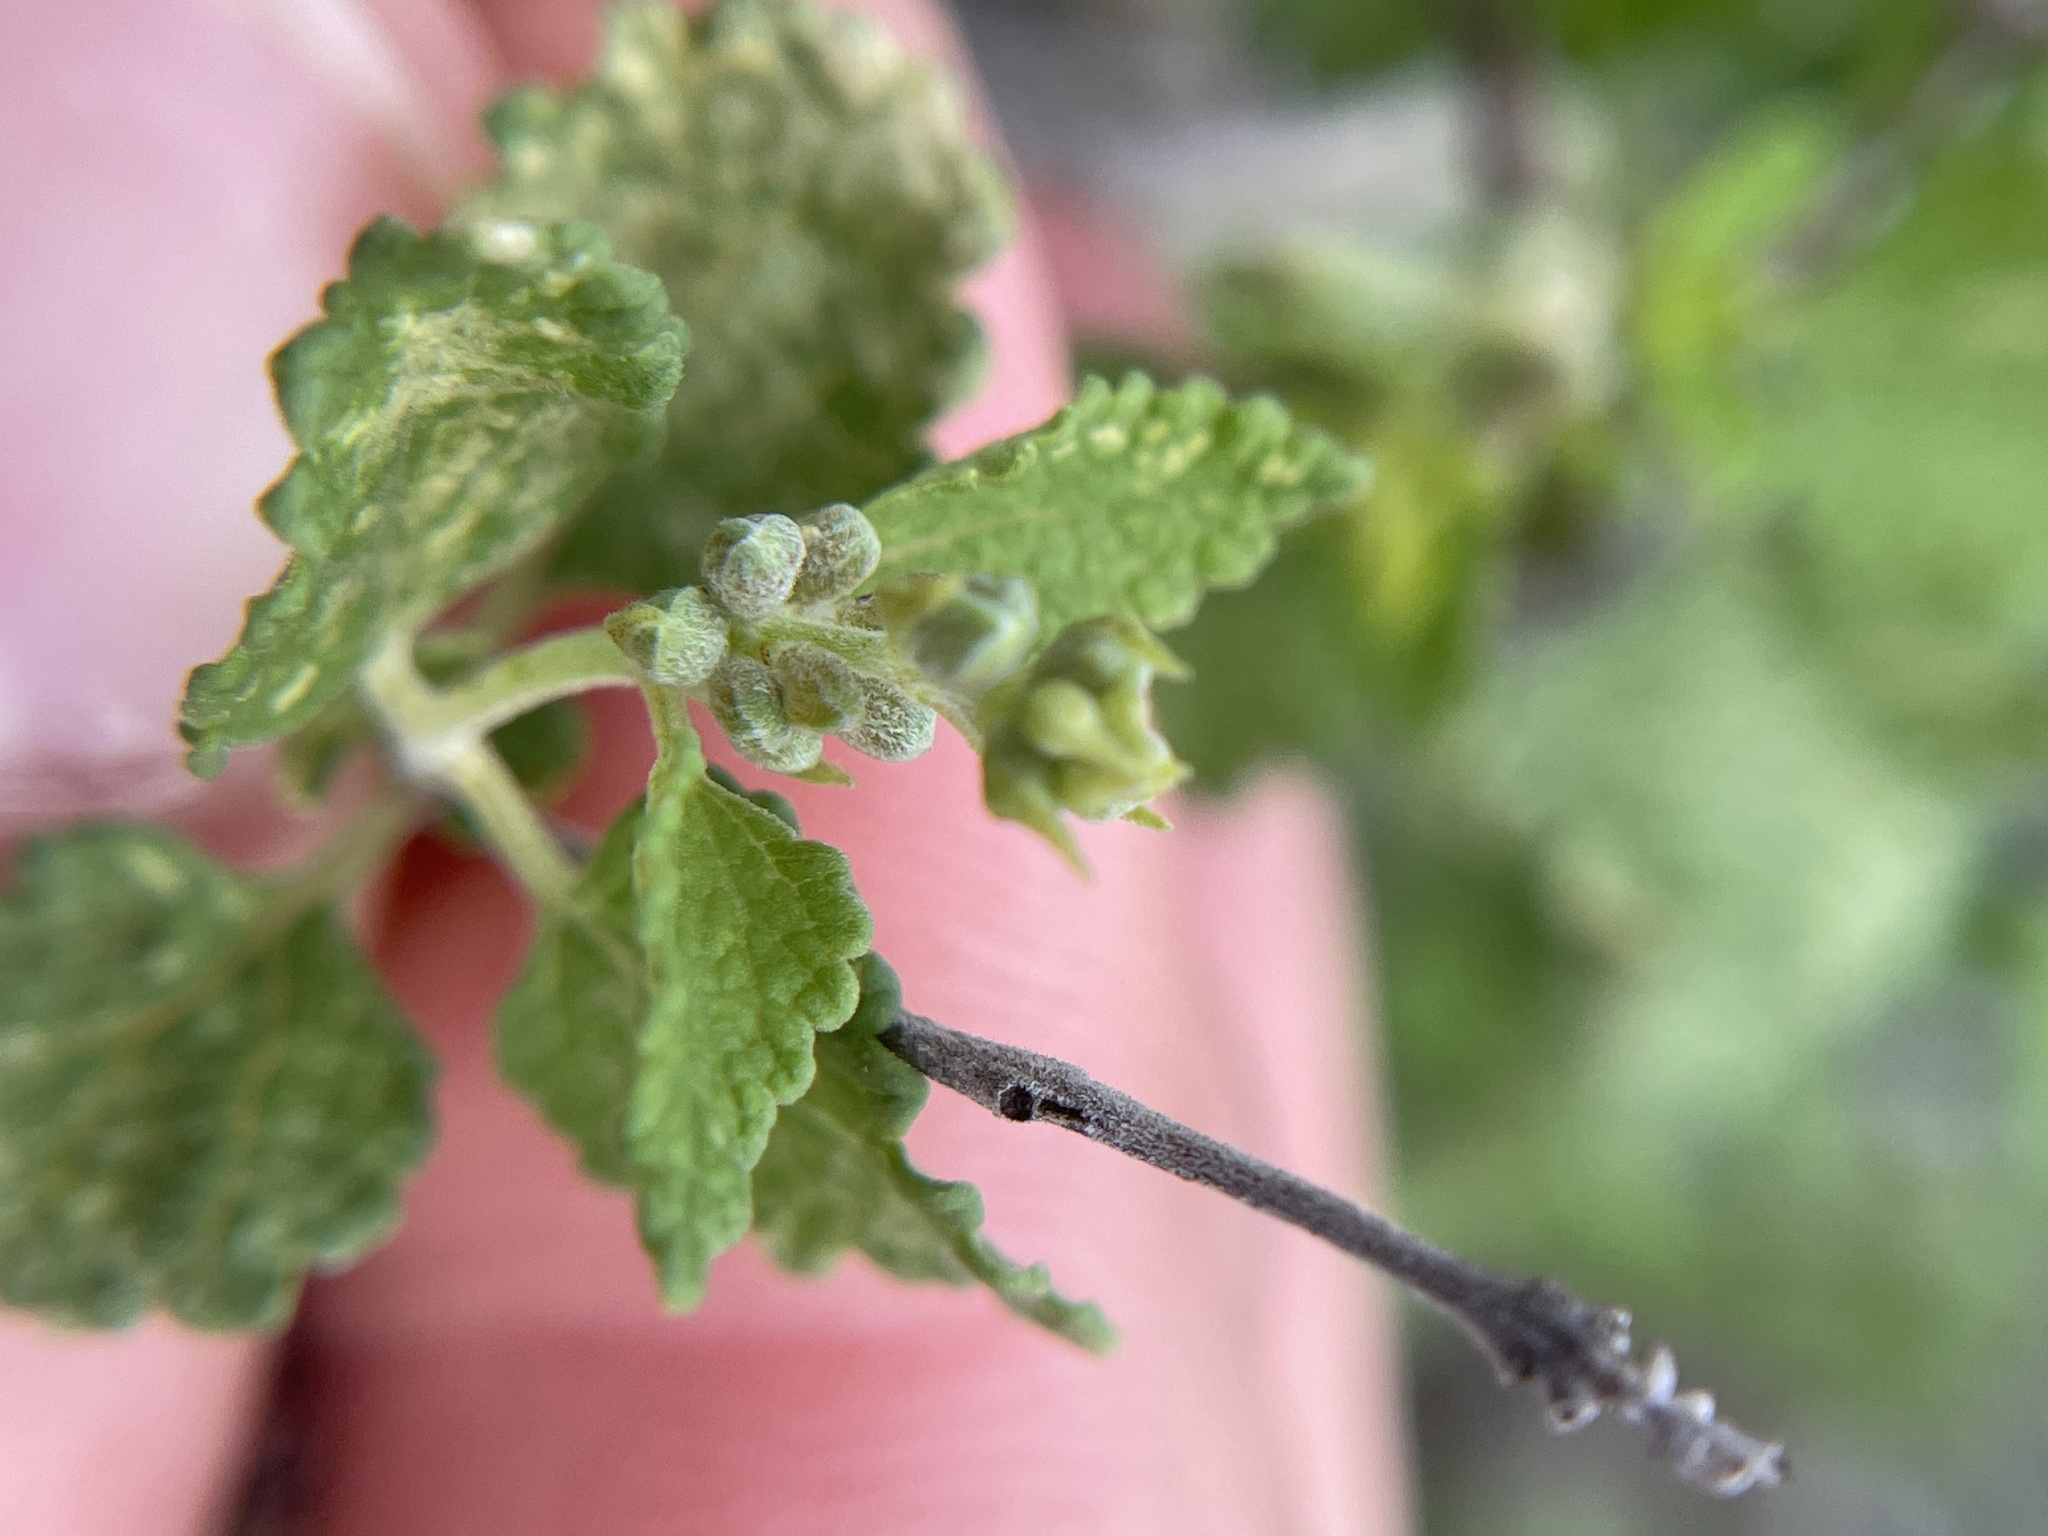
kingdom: Plantae
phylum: Tracheophyta
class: Magnoliopsida
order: Lamiales
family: Lamiaceae
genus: Salvia
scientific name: Salvia ballotiflora
